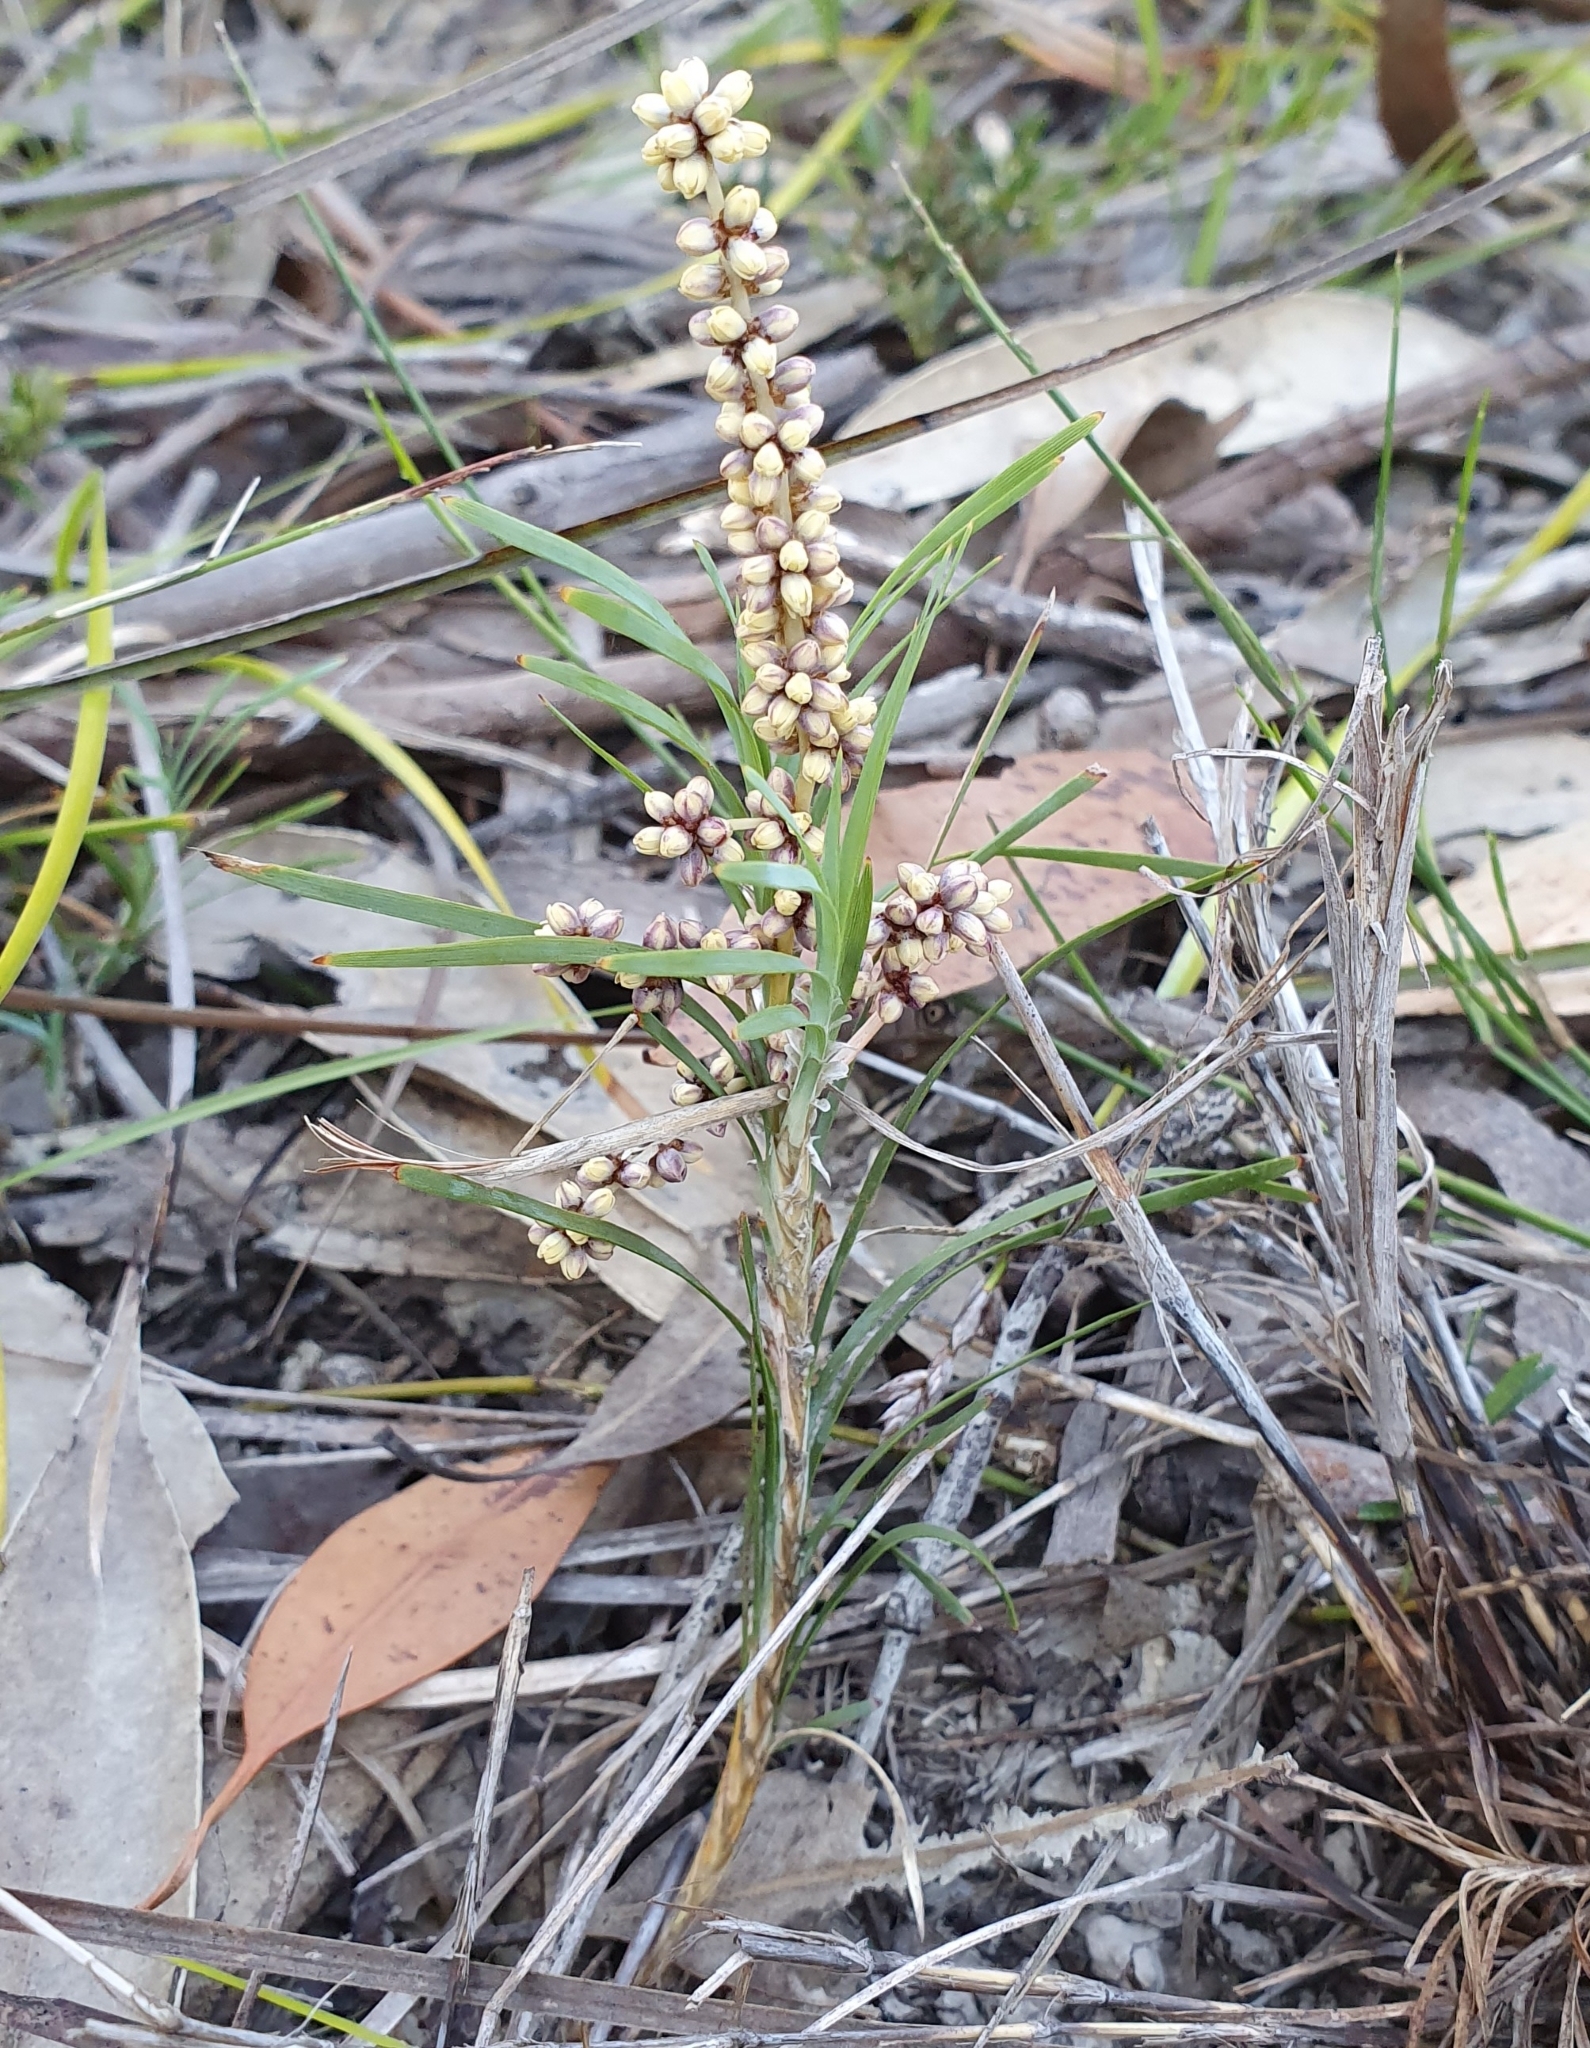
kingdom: Plantae
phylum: Tracheophyta
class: Liliopsida
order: Asparagales
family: Asparagaceae
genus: Lomandra
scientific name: Lomandra obliqua
